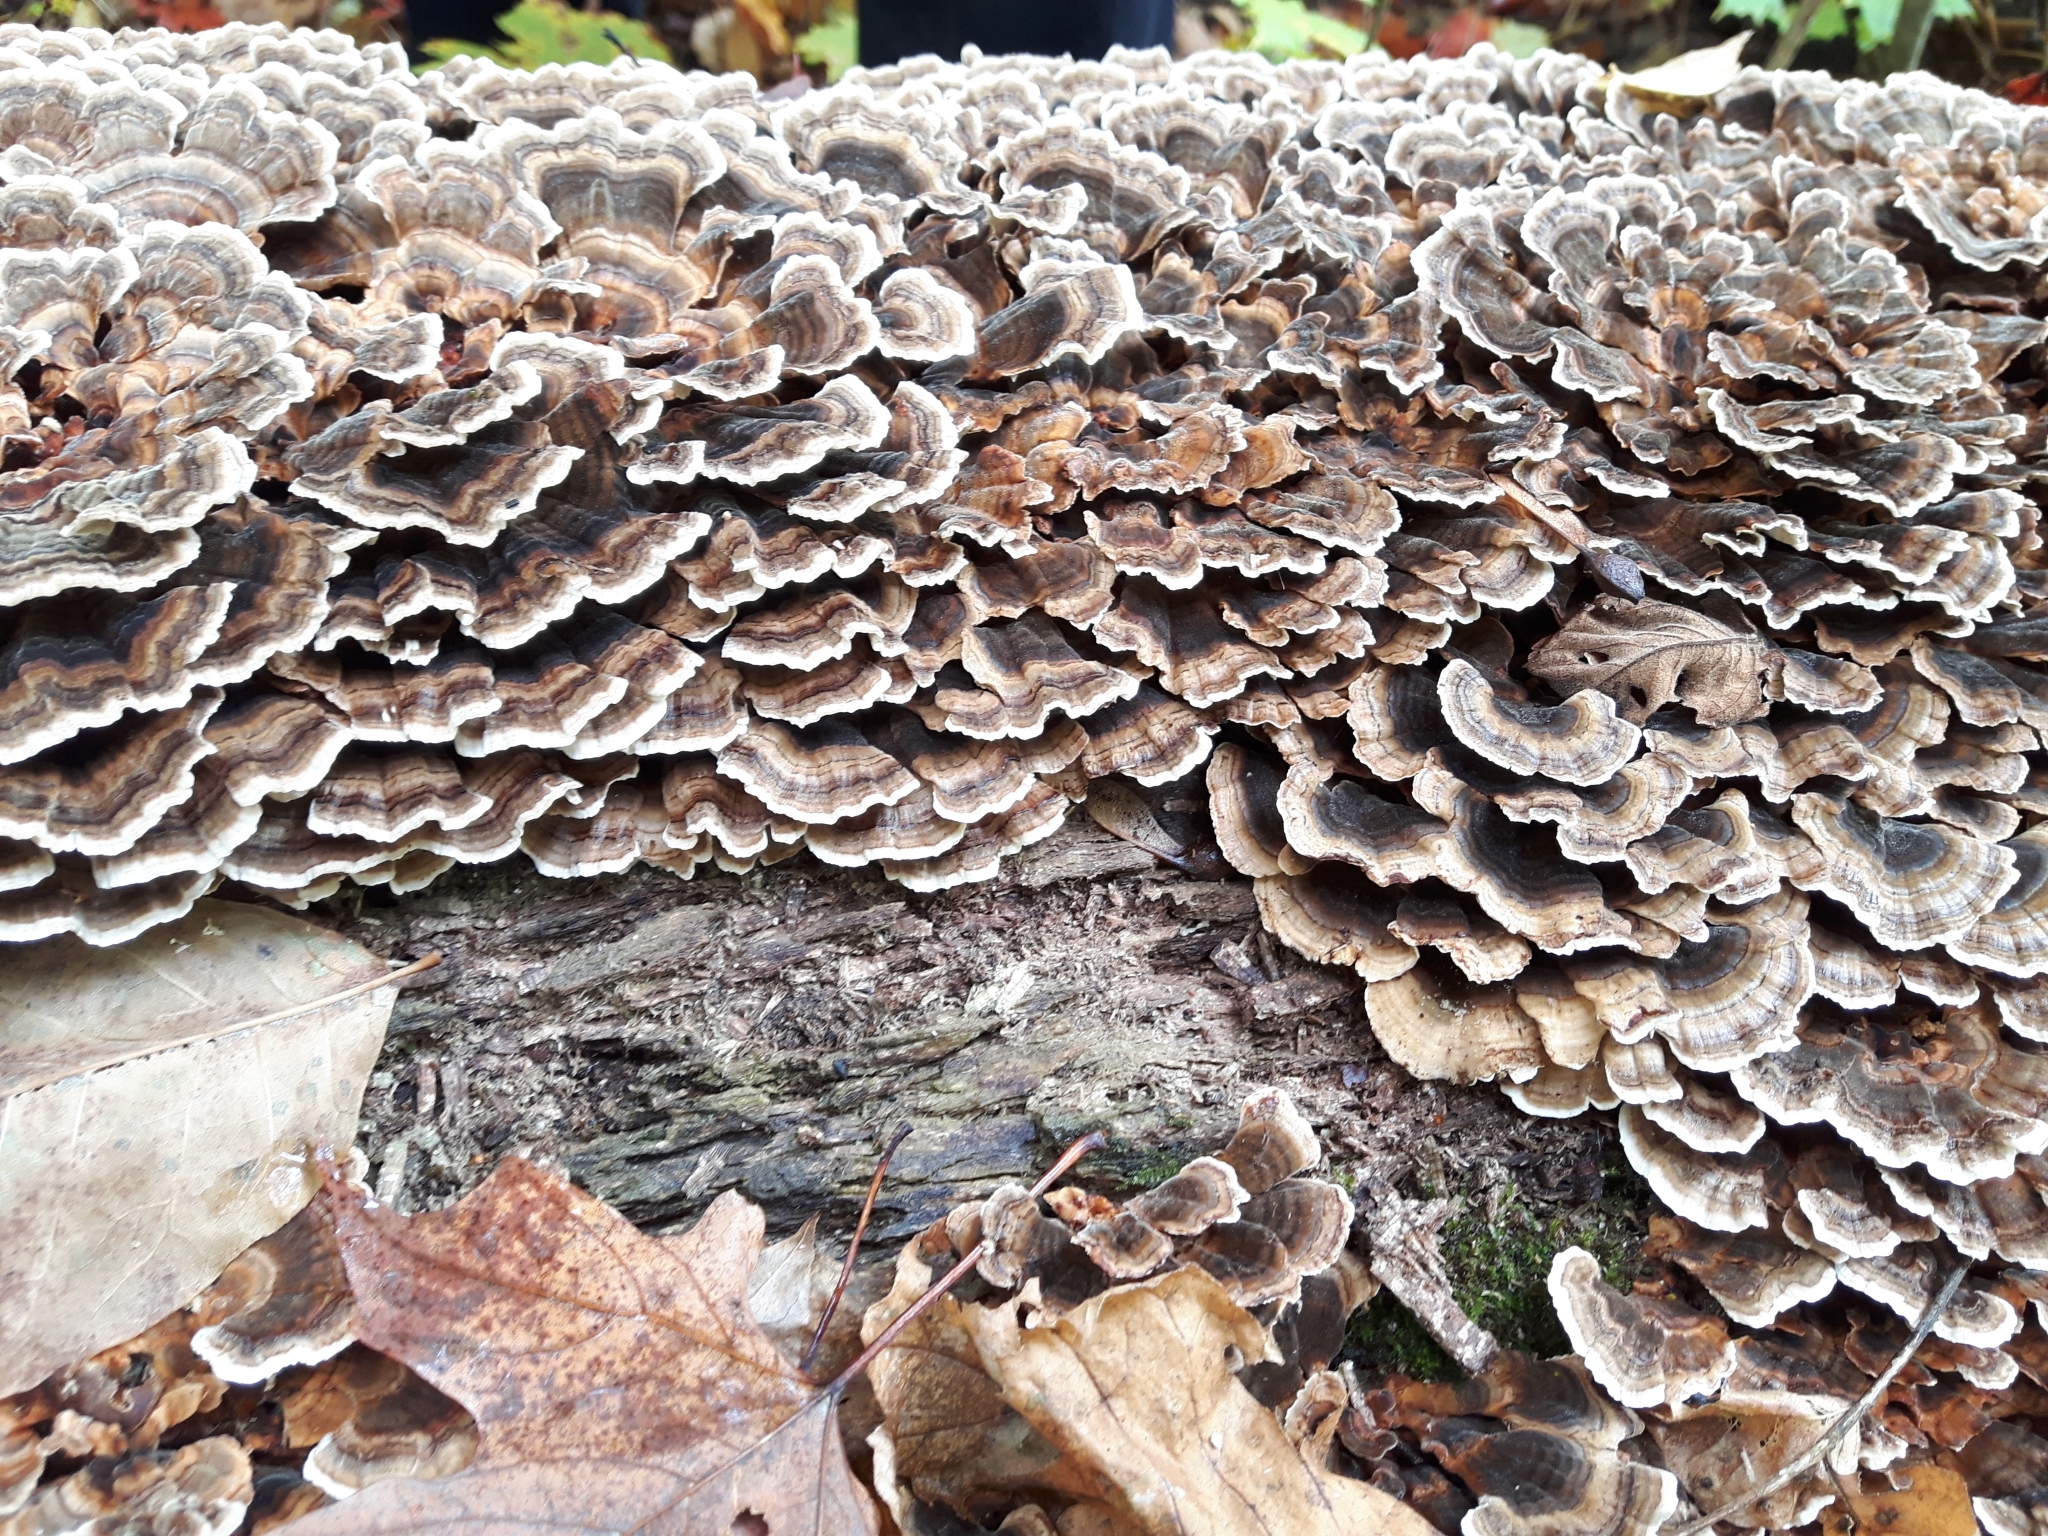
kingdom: Fungi
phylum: Basidiomycota
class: Agaricomycetes
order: Polyporales
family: Polyporaceae
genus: Trametes
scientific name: Trametes versicolor
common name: Turkeytail
